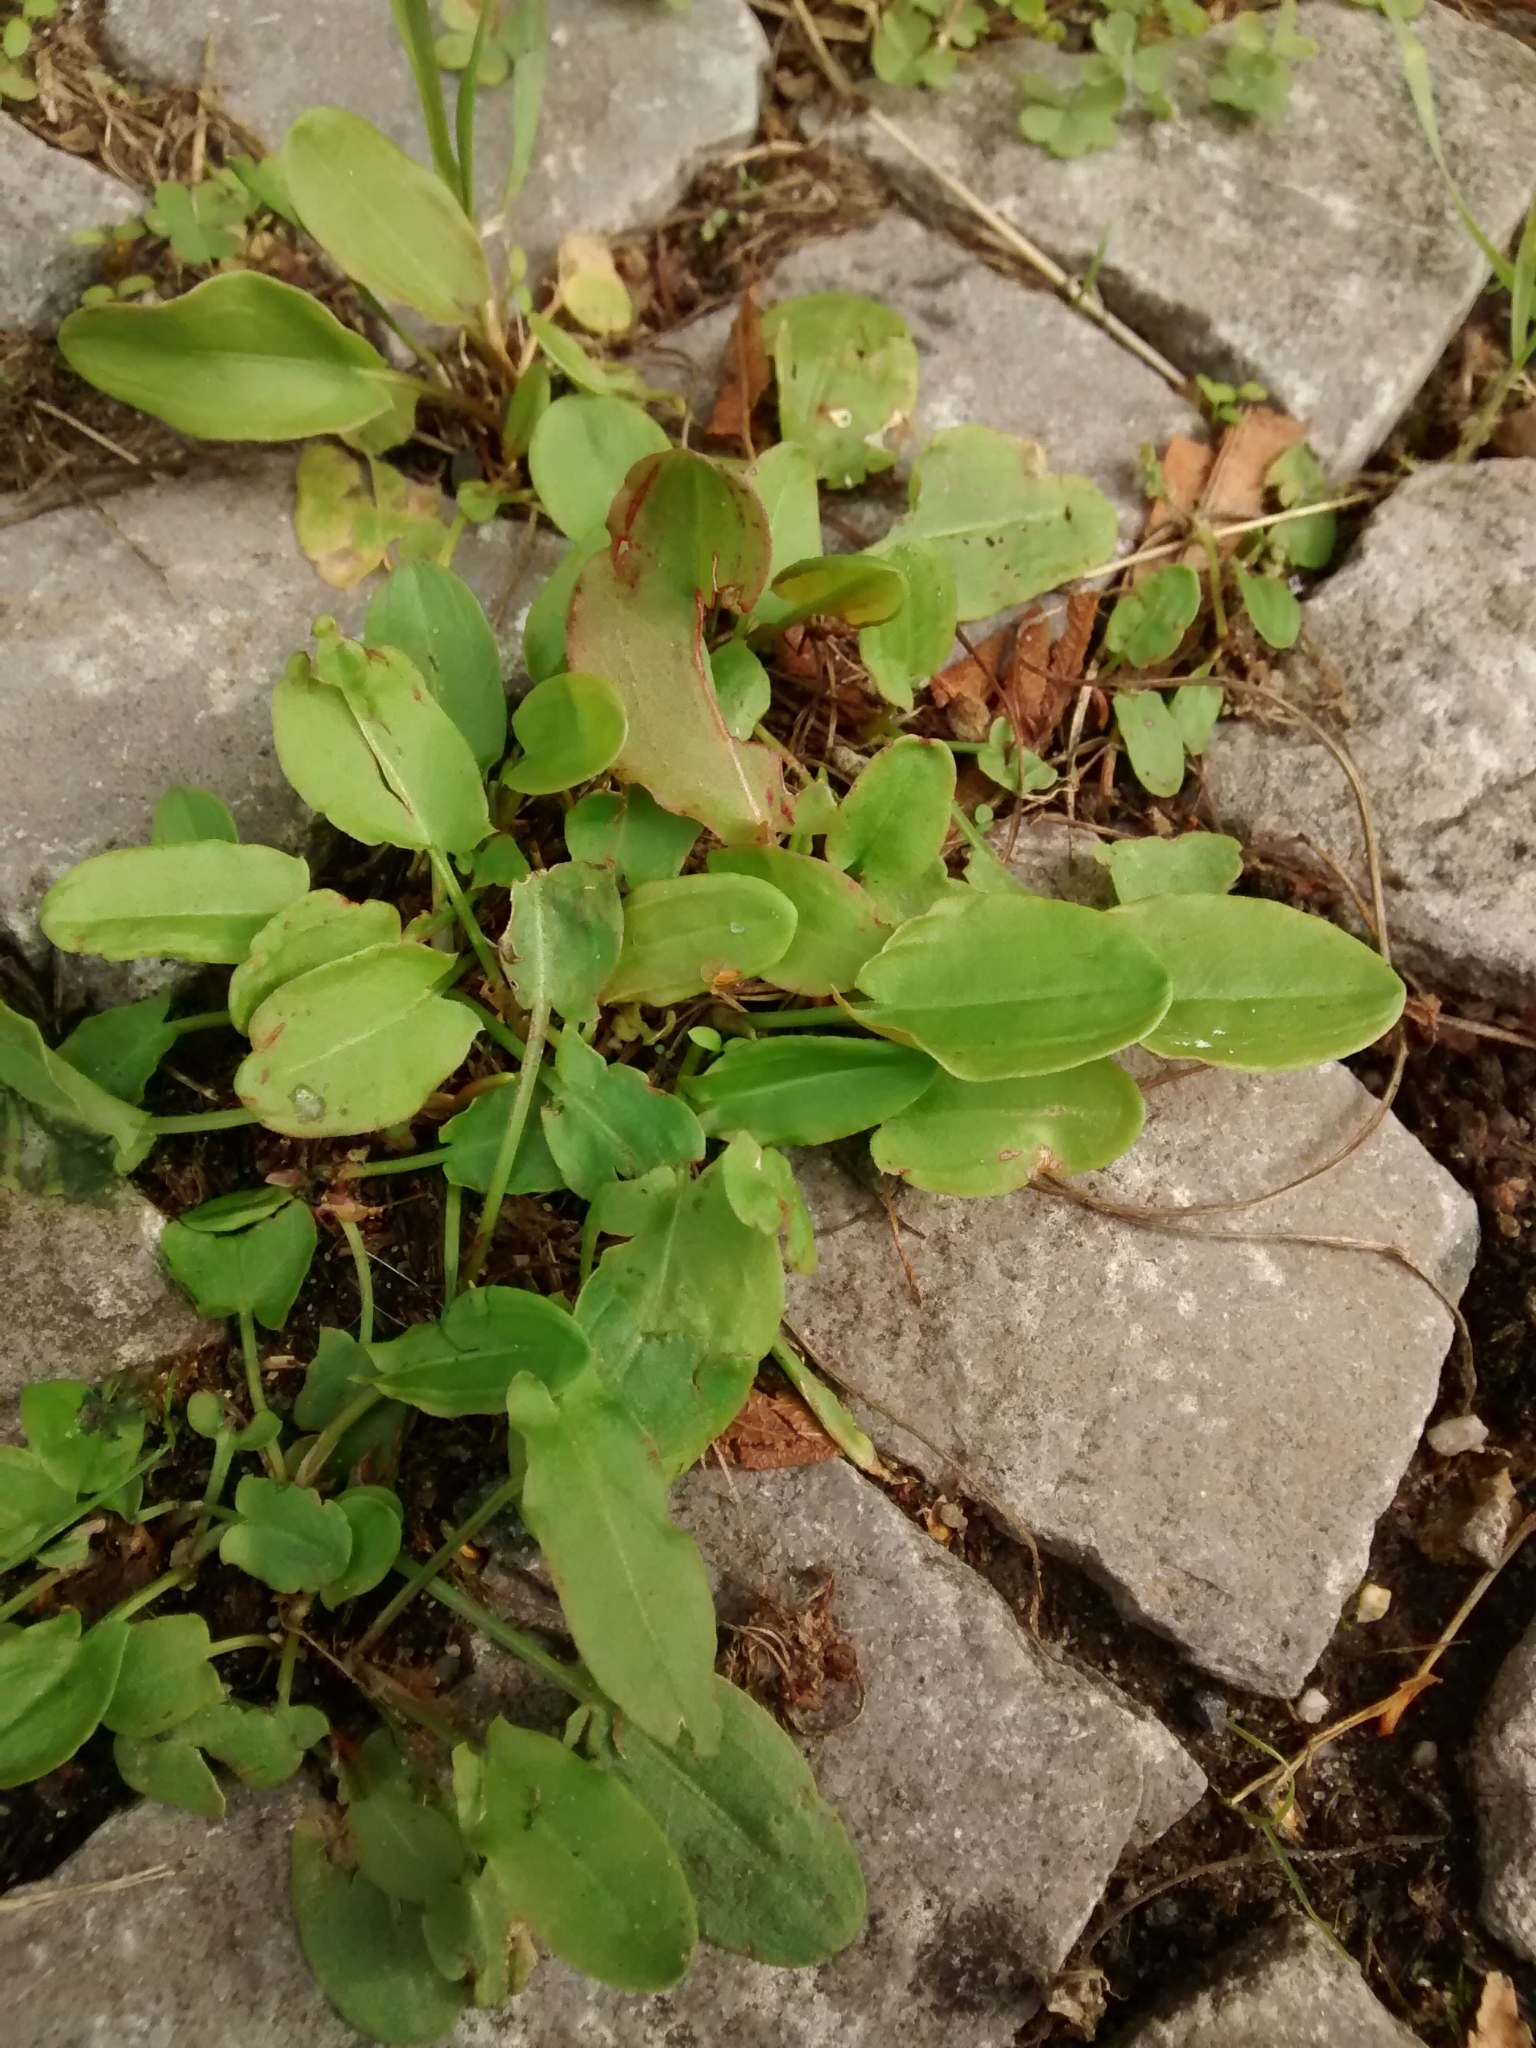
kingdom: Plantae
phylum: Tracheophyta
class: Magnoliopsida
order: Caryophyllales
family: Polygonaceae
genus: Rumex
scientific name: Rumex acetosa
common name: Garden sorrel
